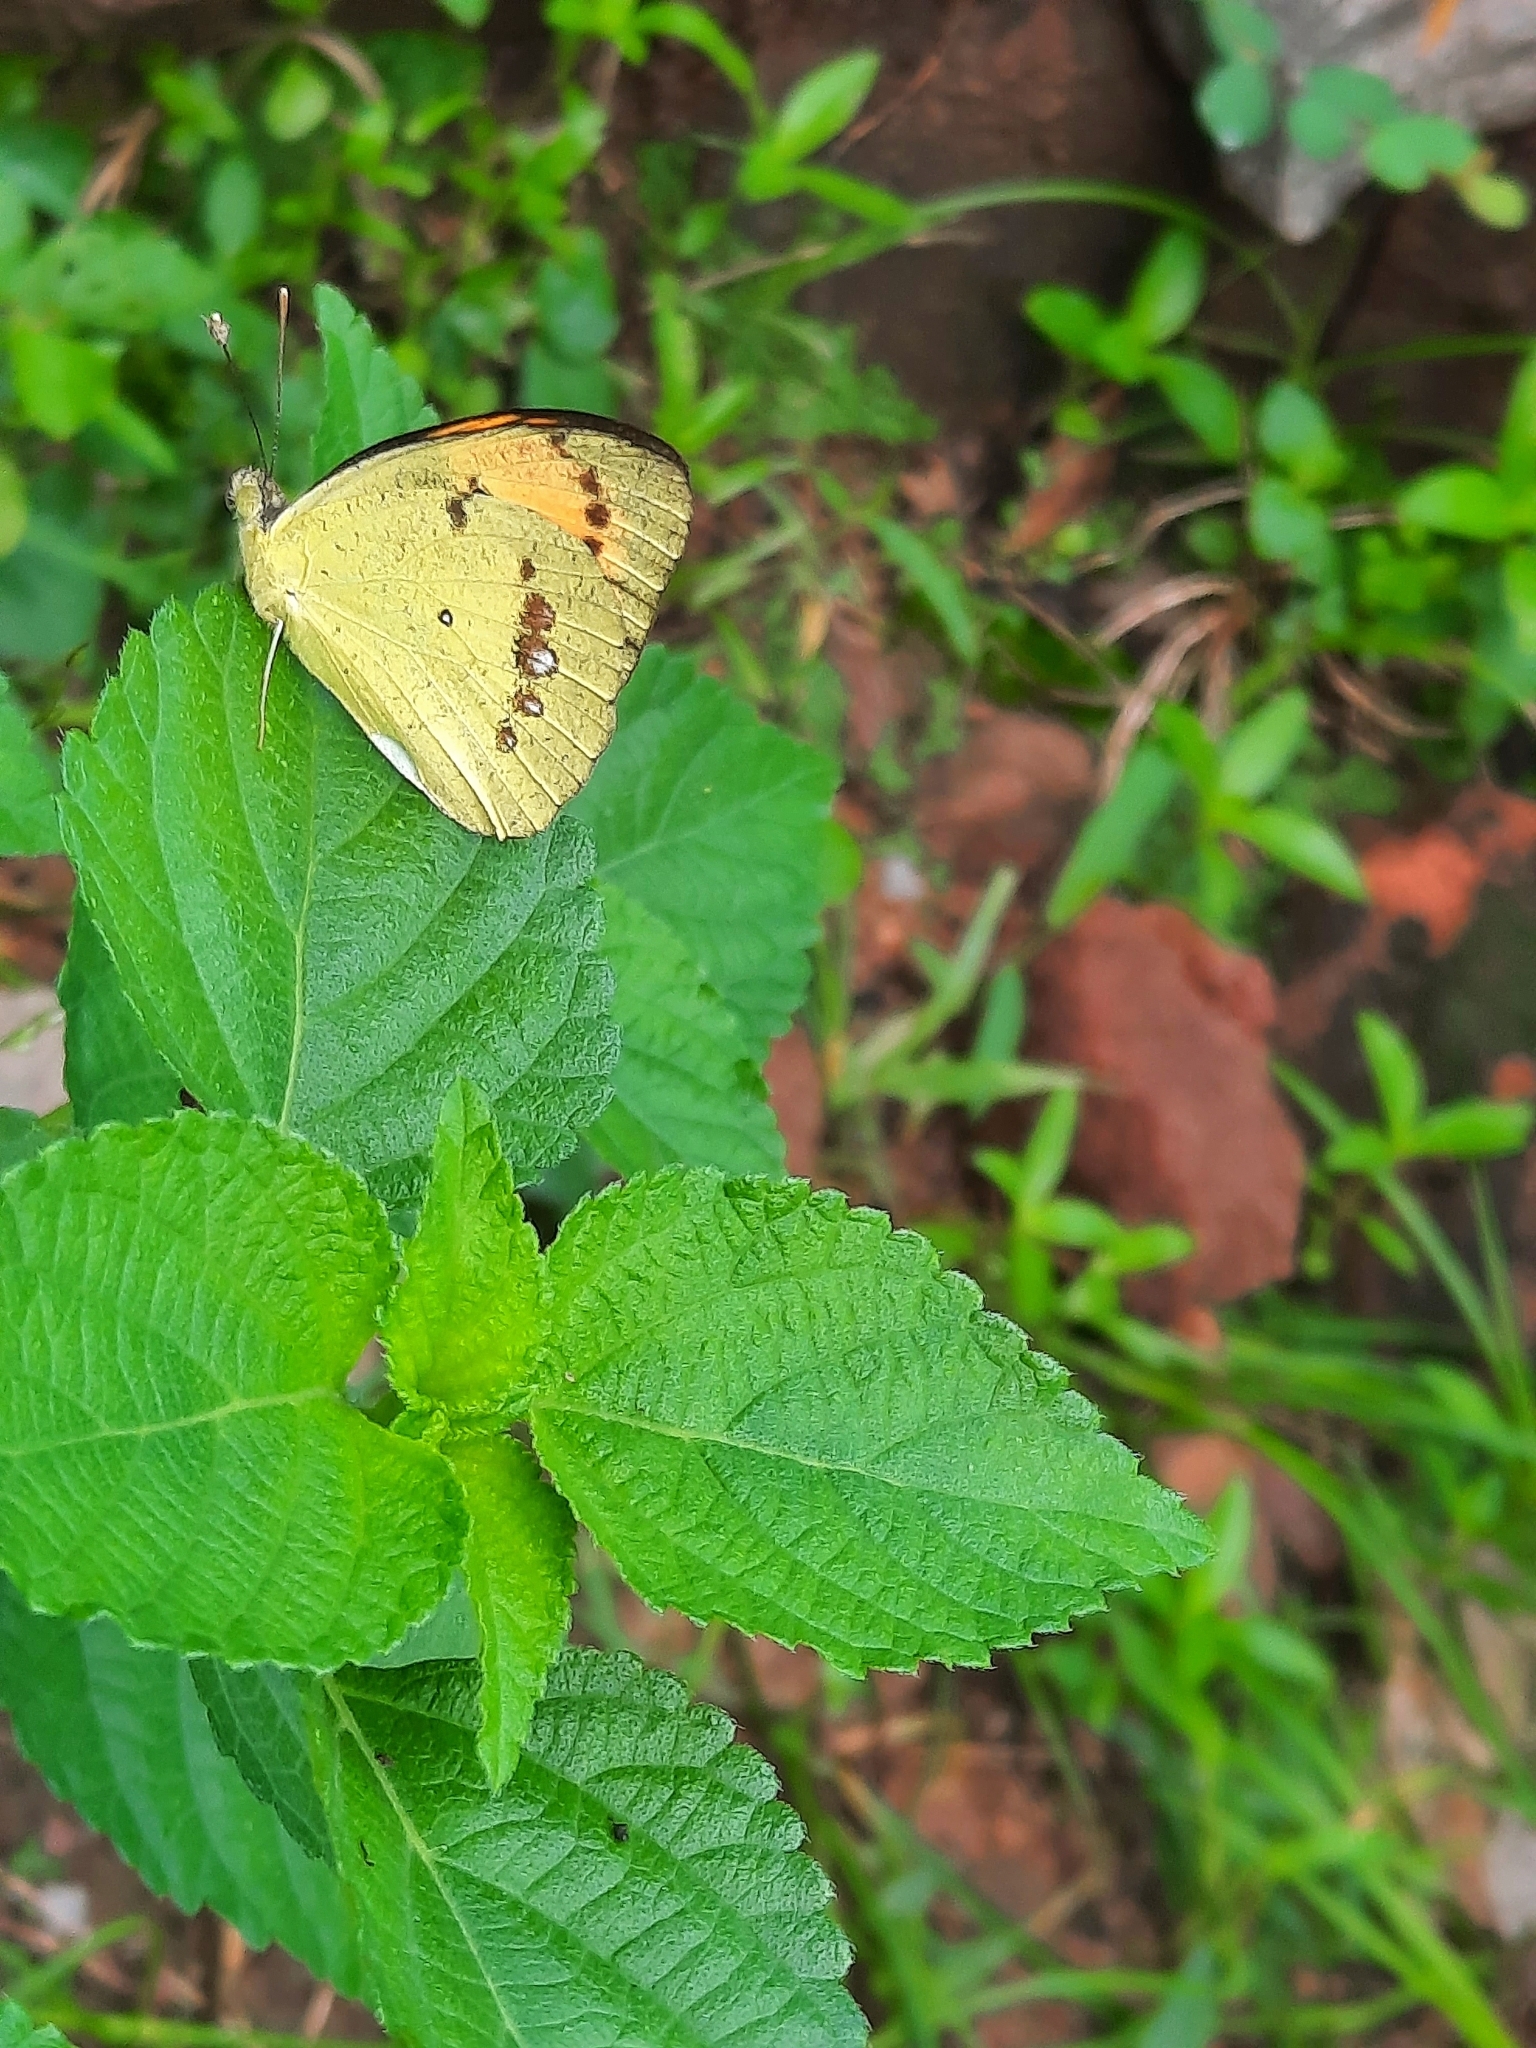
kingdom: Animalia
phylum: Arthropoda
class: Insecta
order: Lepidoptera
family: Pieridae
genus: Ixias
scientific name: Ixias marianne
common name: White orange tip
